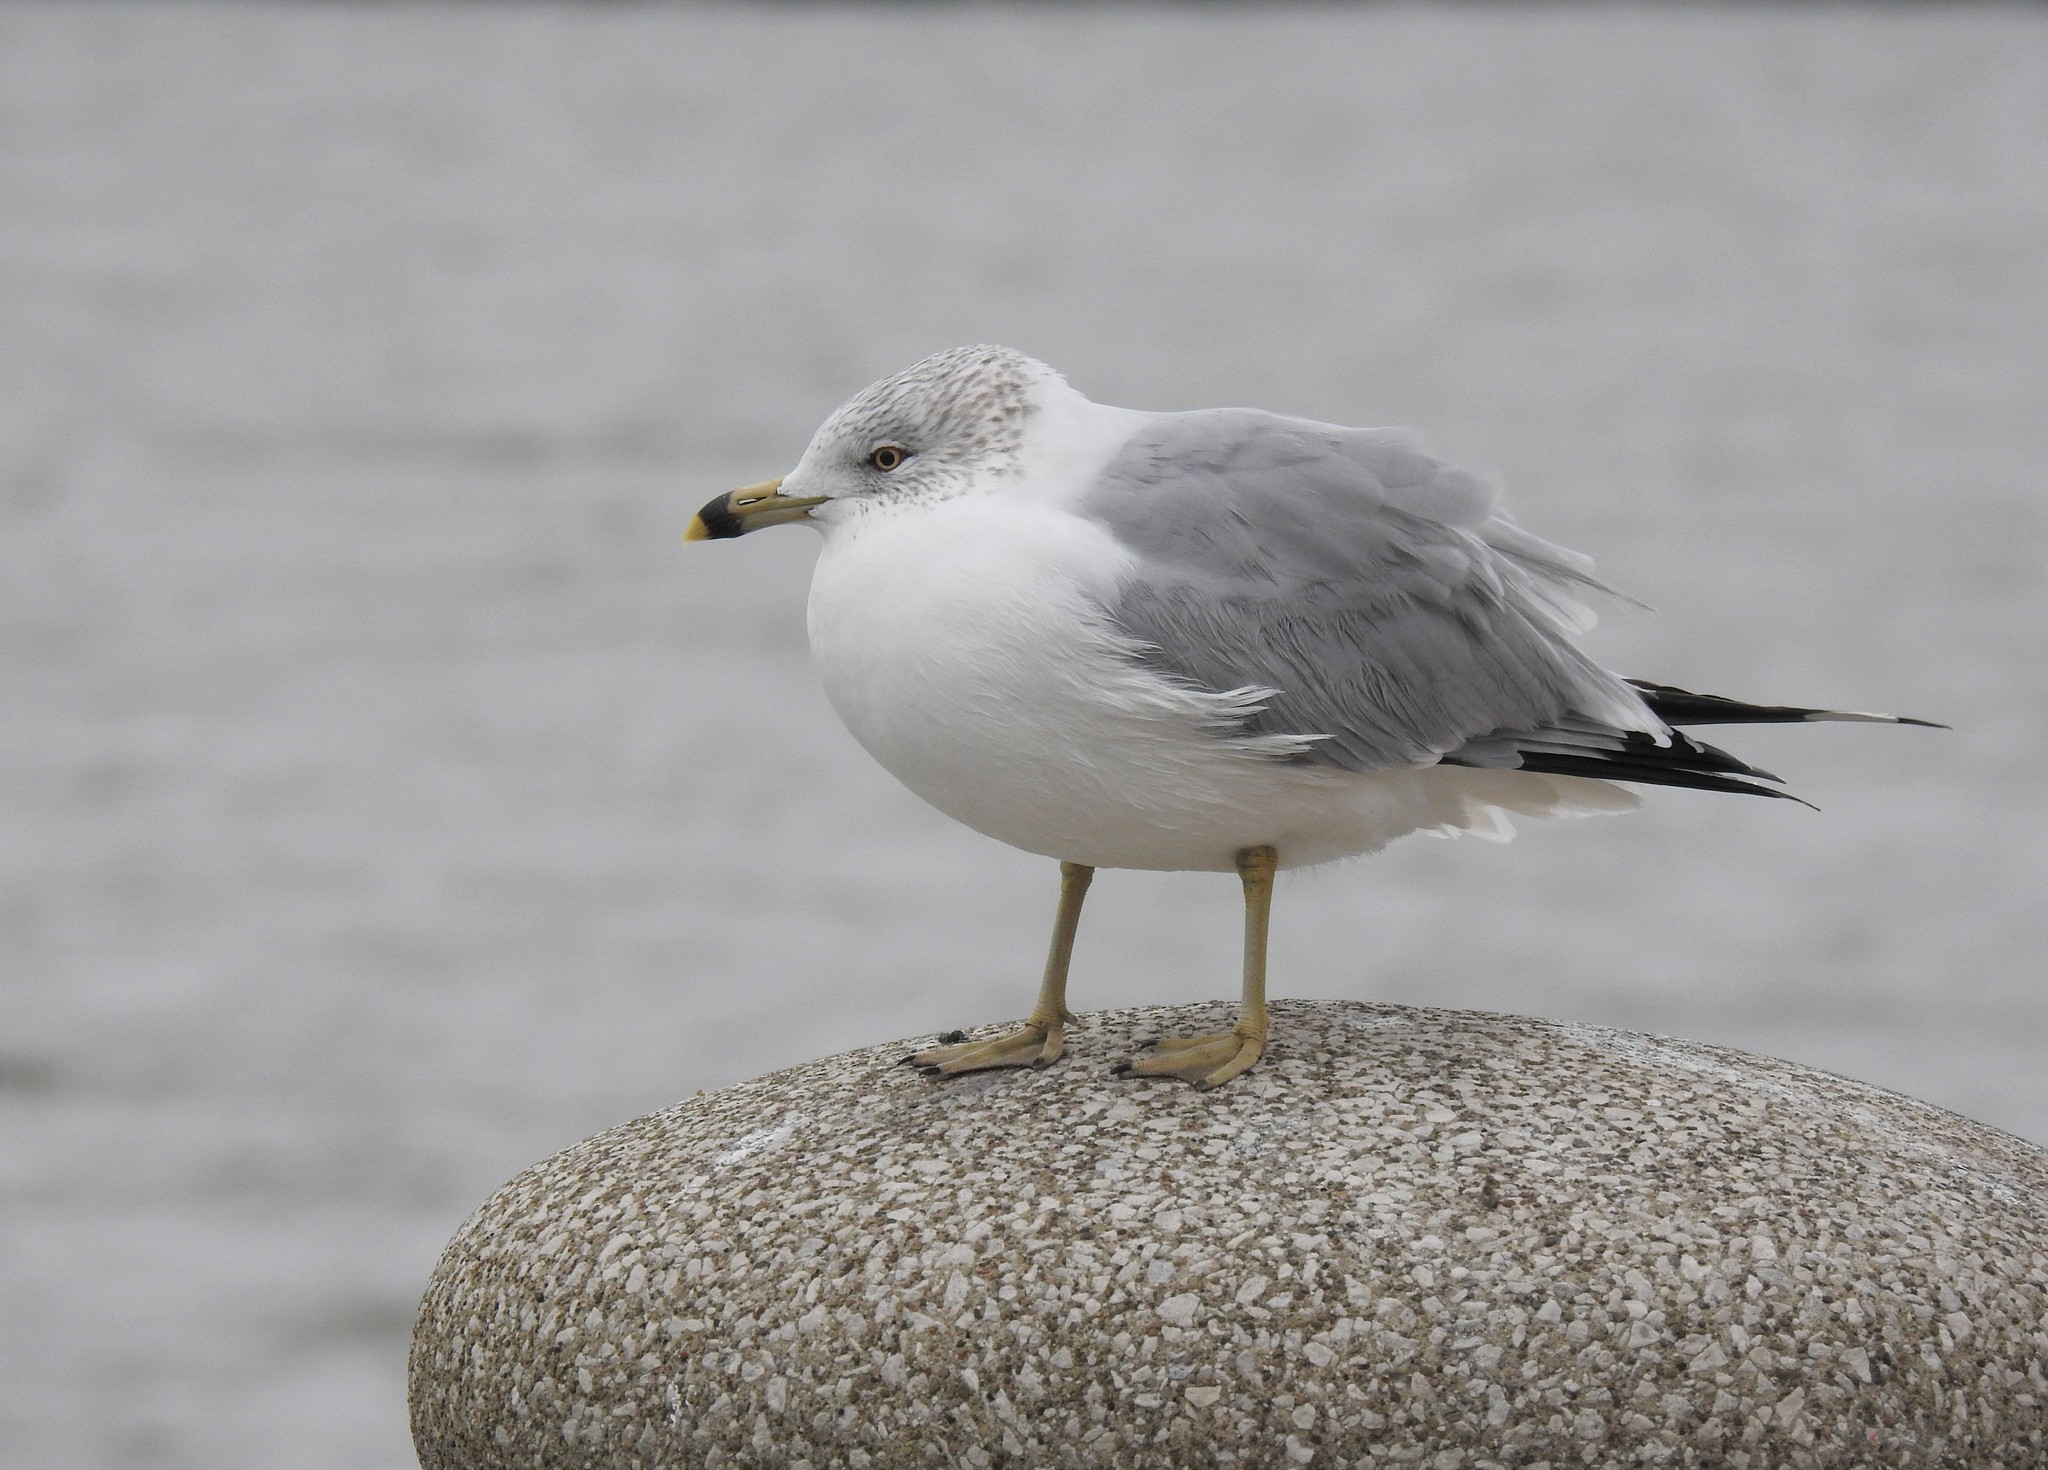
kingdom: Animalia
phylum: Chordata
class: Aves
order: Charadriiformes
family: Laridae
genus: Larus
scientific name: Larus delawarensis
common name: Ring-billed gull
